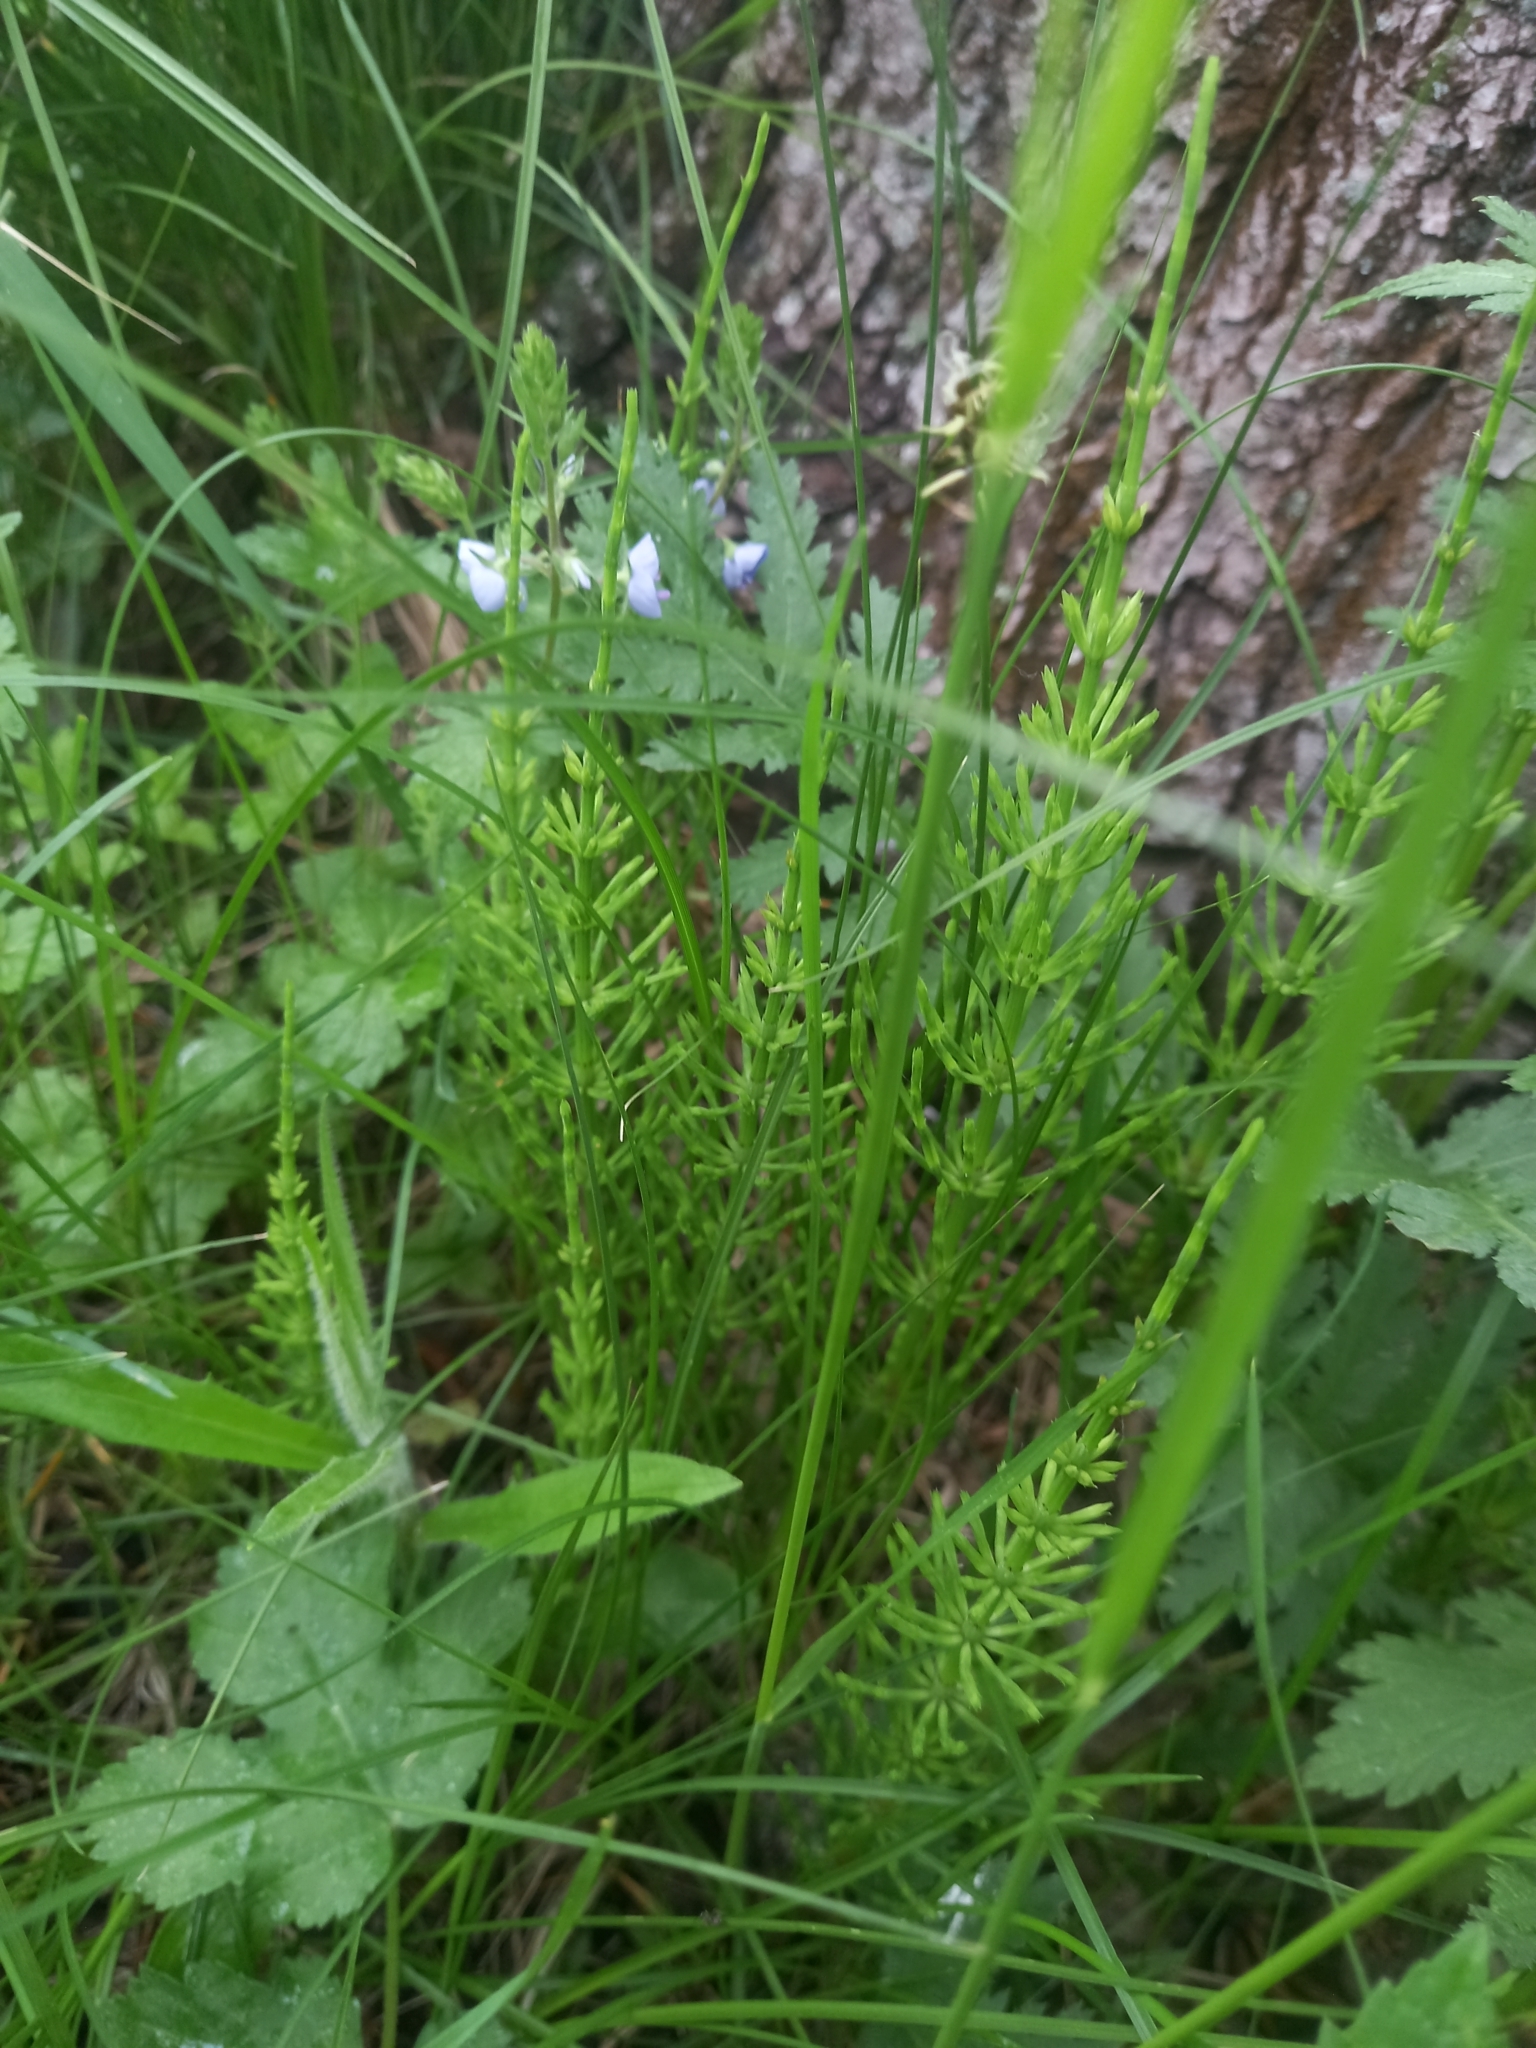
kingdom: Plantae
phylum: Tracheophyta
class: Polypodiopsida
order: Equisetales
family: Equisetaceae
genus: Equisetum
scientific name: Equisetum arvense
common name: Field horsetail
